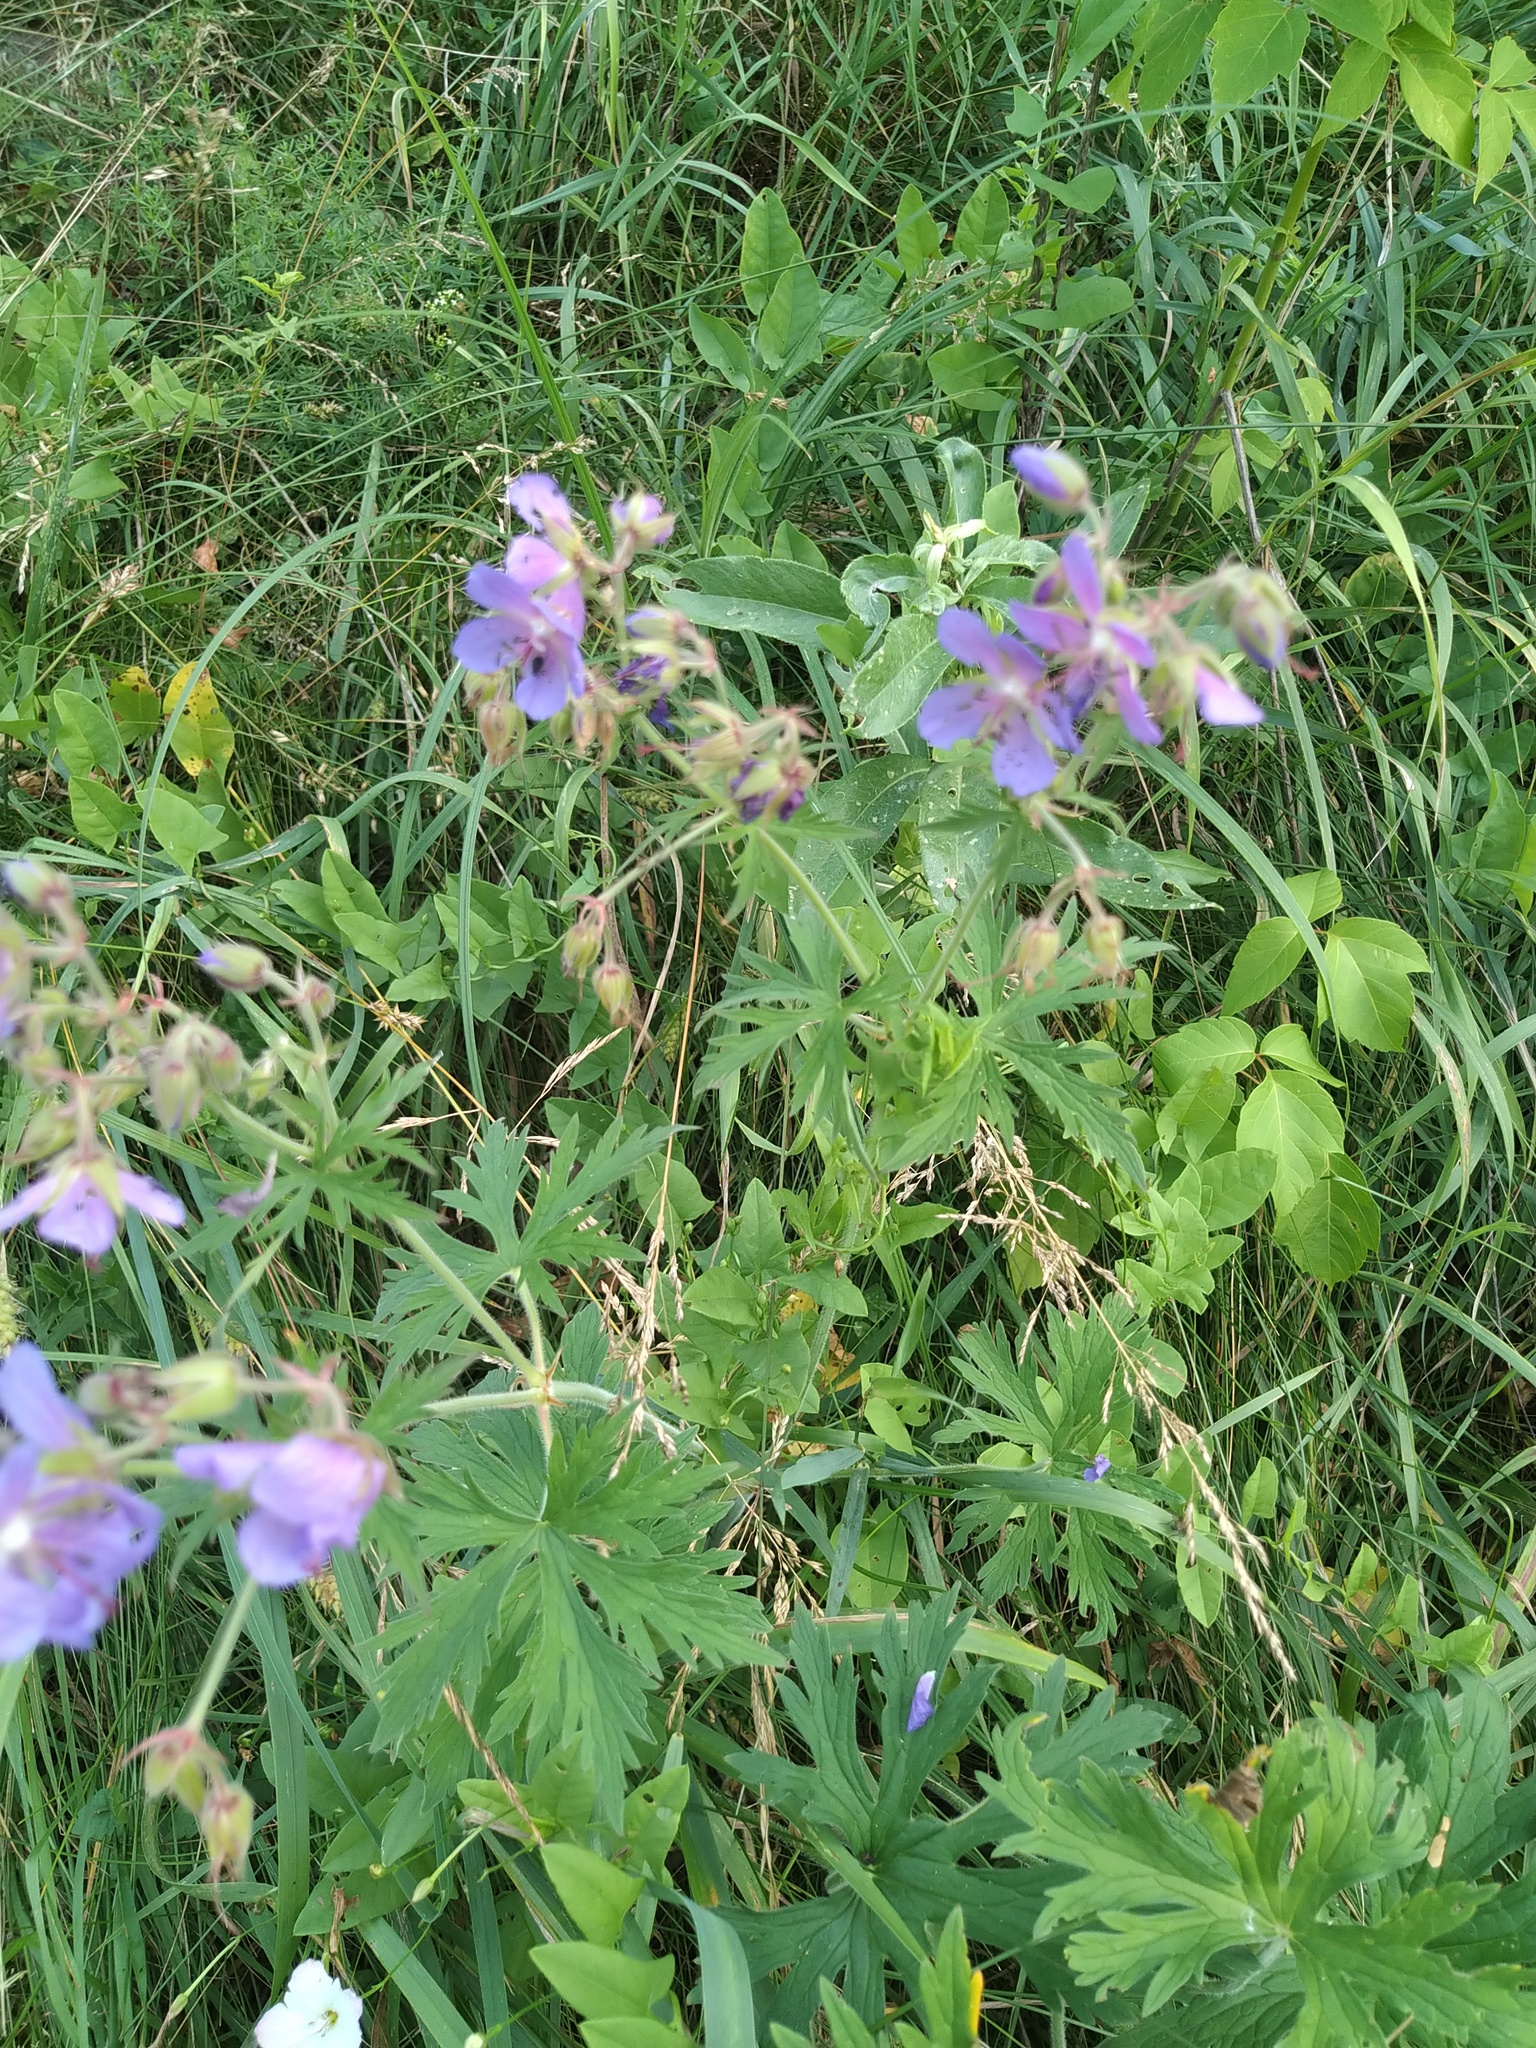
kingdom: Plantae
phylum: Tracheophyta
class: Magnoliopsida
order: Geraniales
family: Geraniaceae
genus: Geranium
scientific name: Geranium pratense
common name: Meadow crane's-bill
